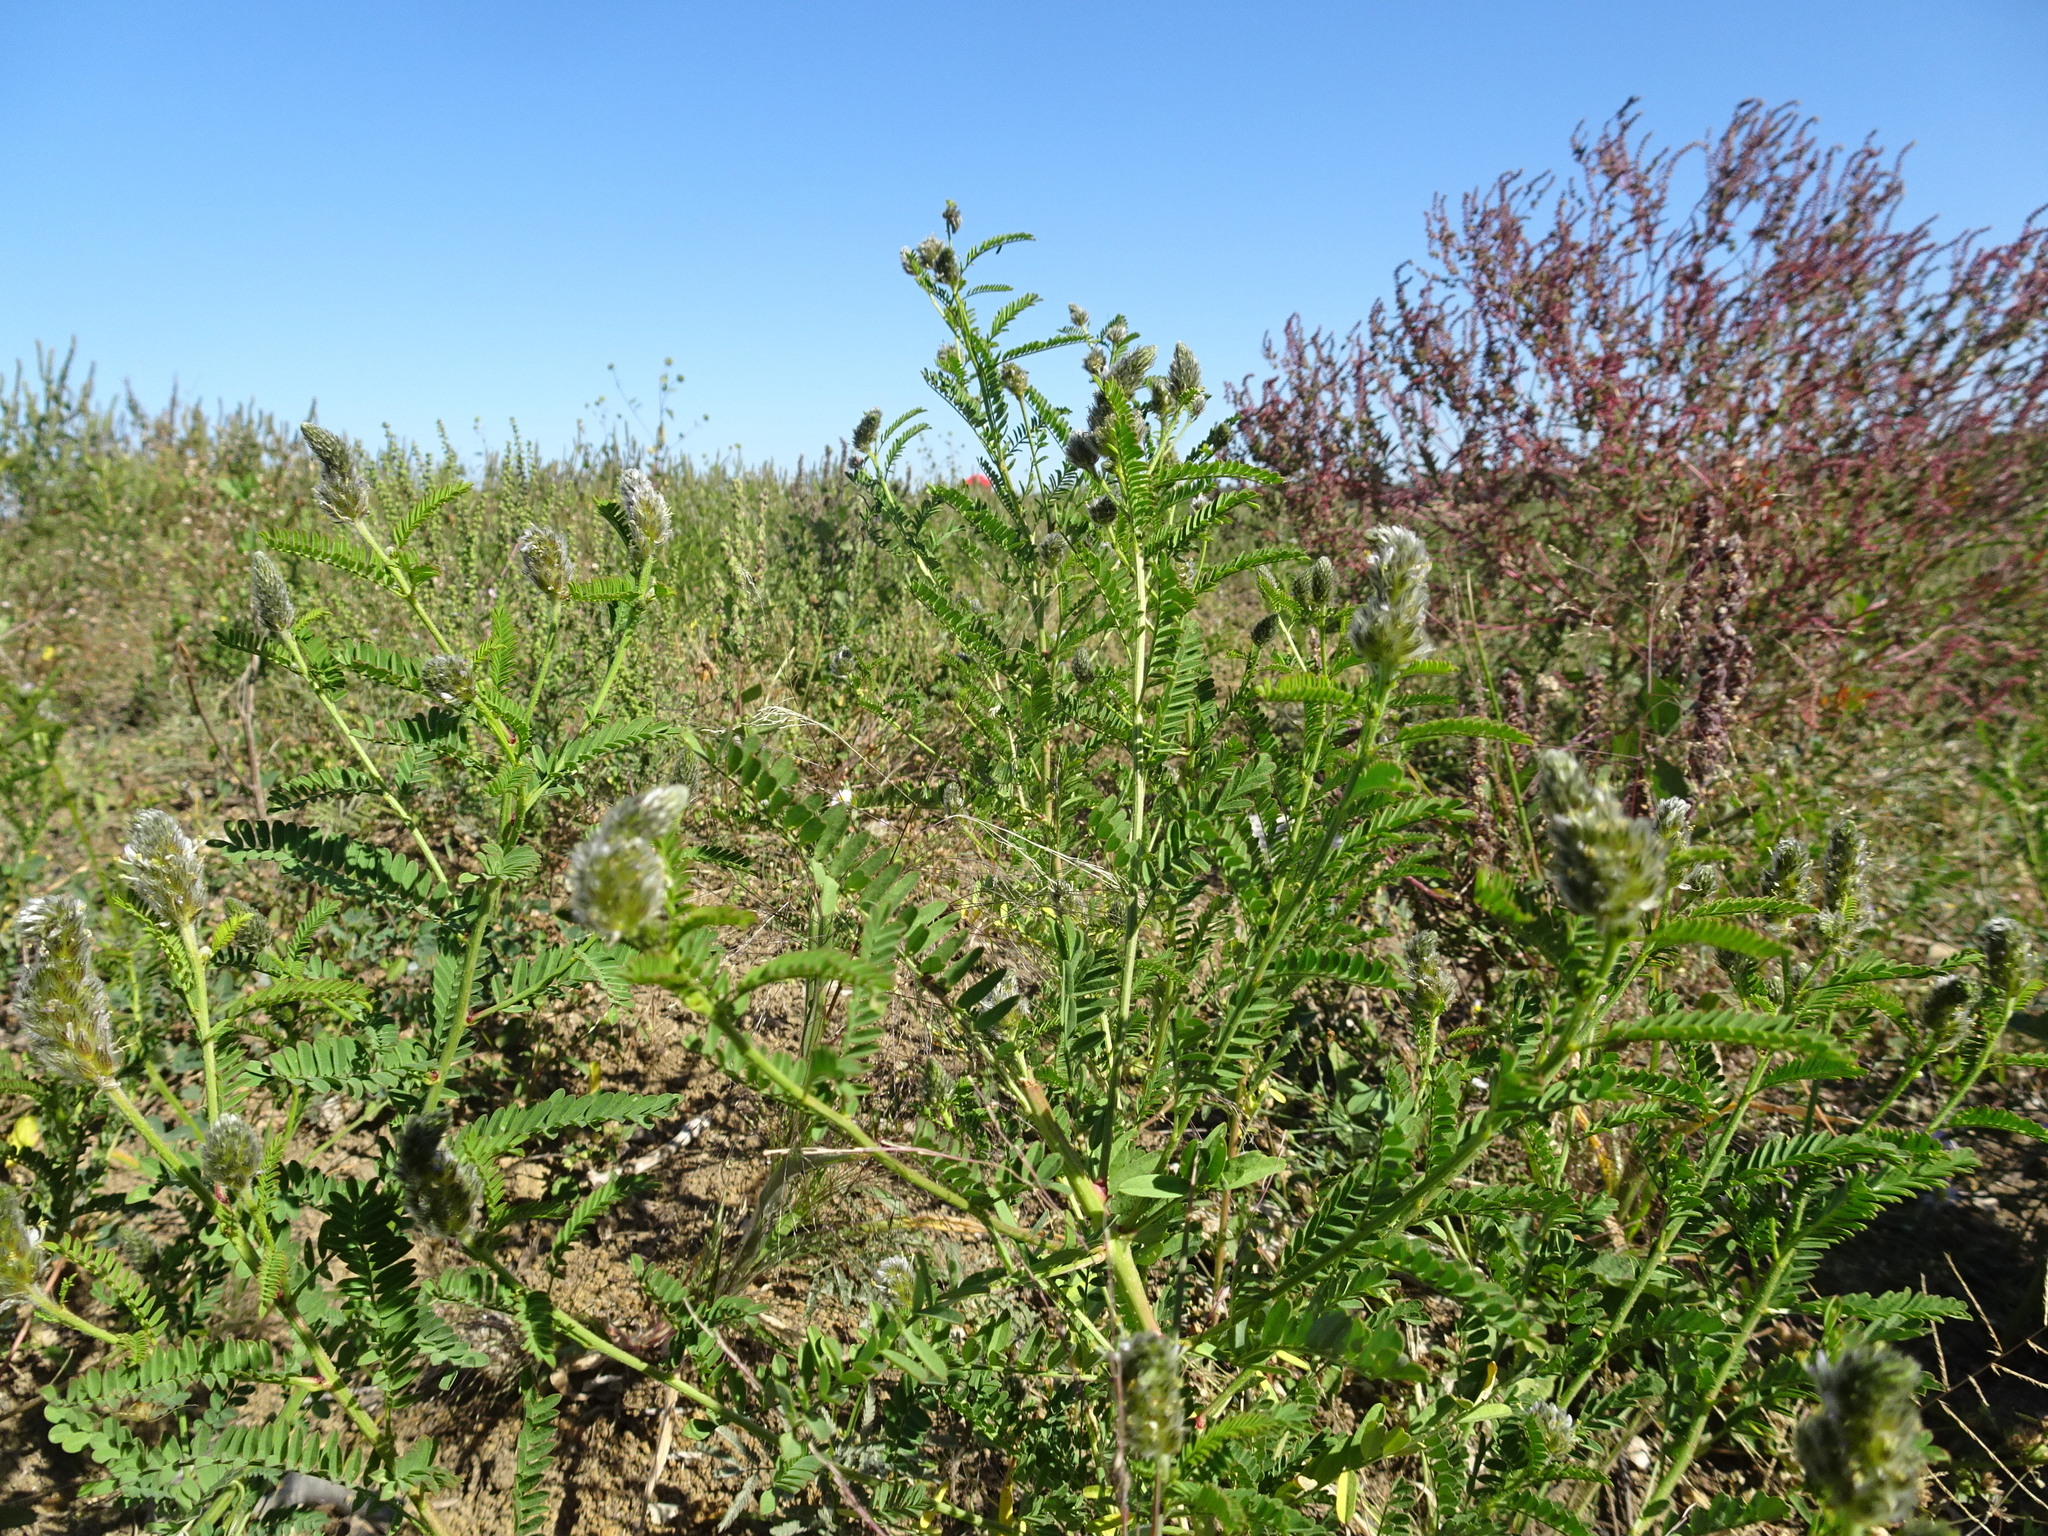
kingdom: Plantae
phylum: Tracheophyta
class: Magnoliopsida
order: Fabales
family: Fabaceae
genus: Dalea
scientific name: Dalea leporina
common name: Foxtail dalea
